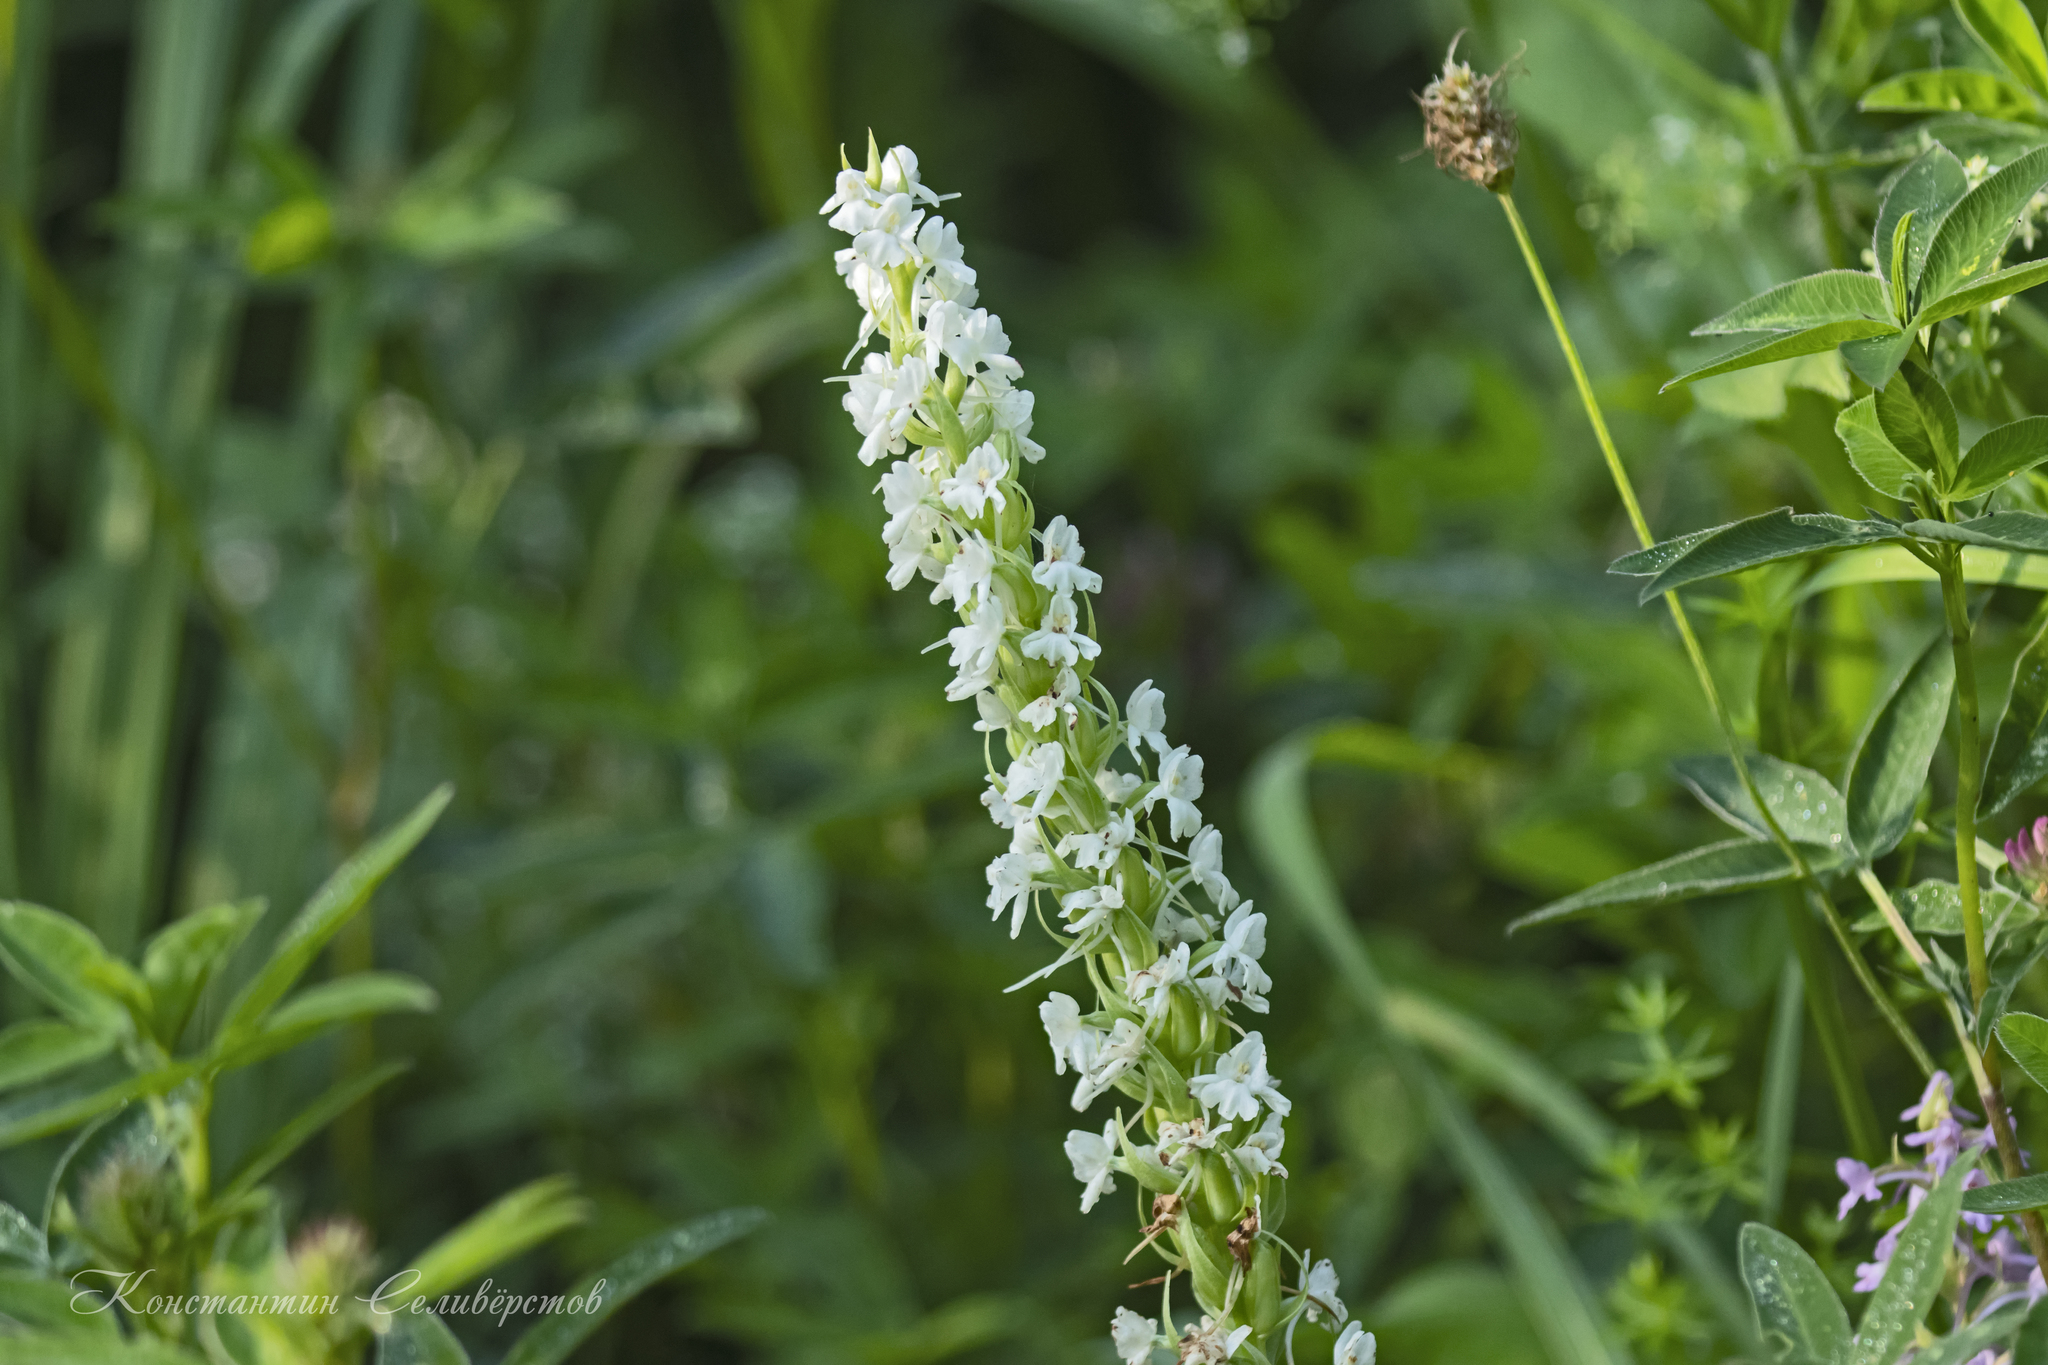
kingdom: Plantae
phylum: Tracheophyta
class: Liliopsida
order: Asparagales
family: Orchidaceae
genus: Gymnadenia
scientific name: Gymnadenia conopsea
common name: Fragrant orchid
